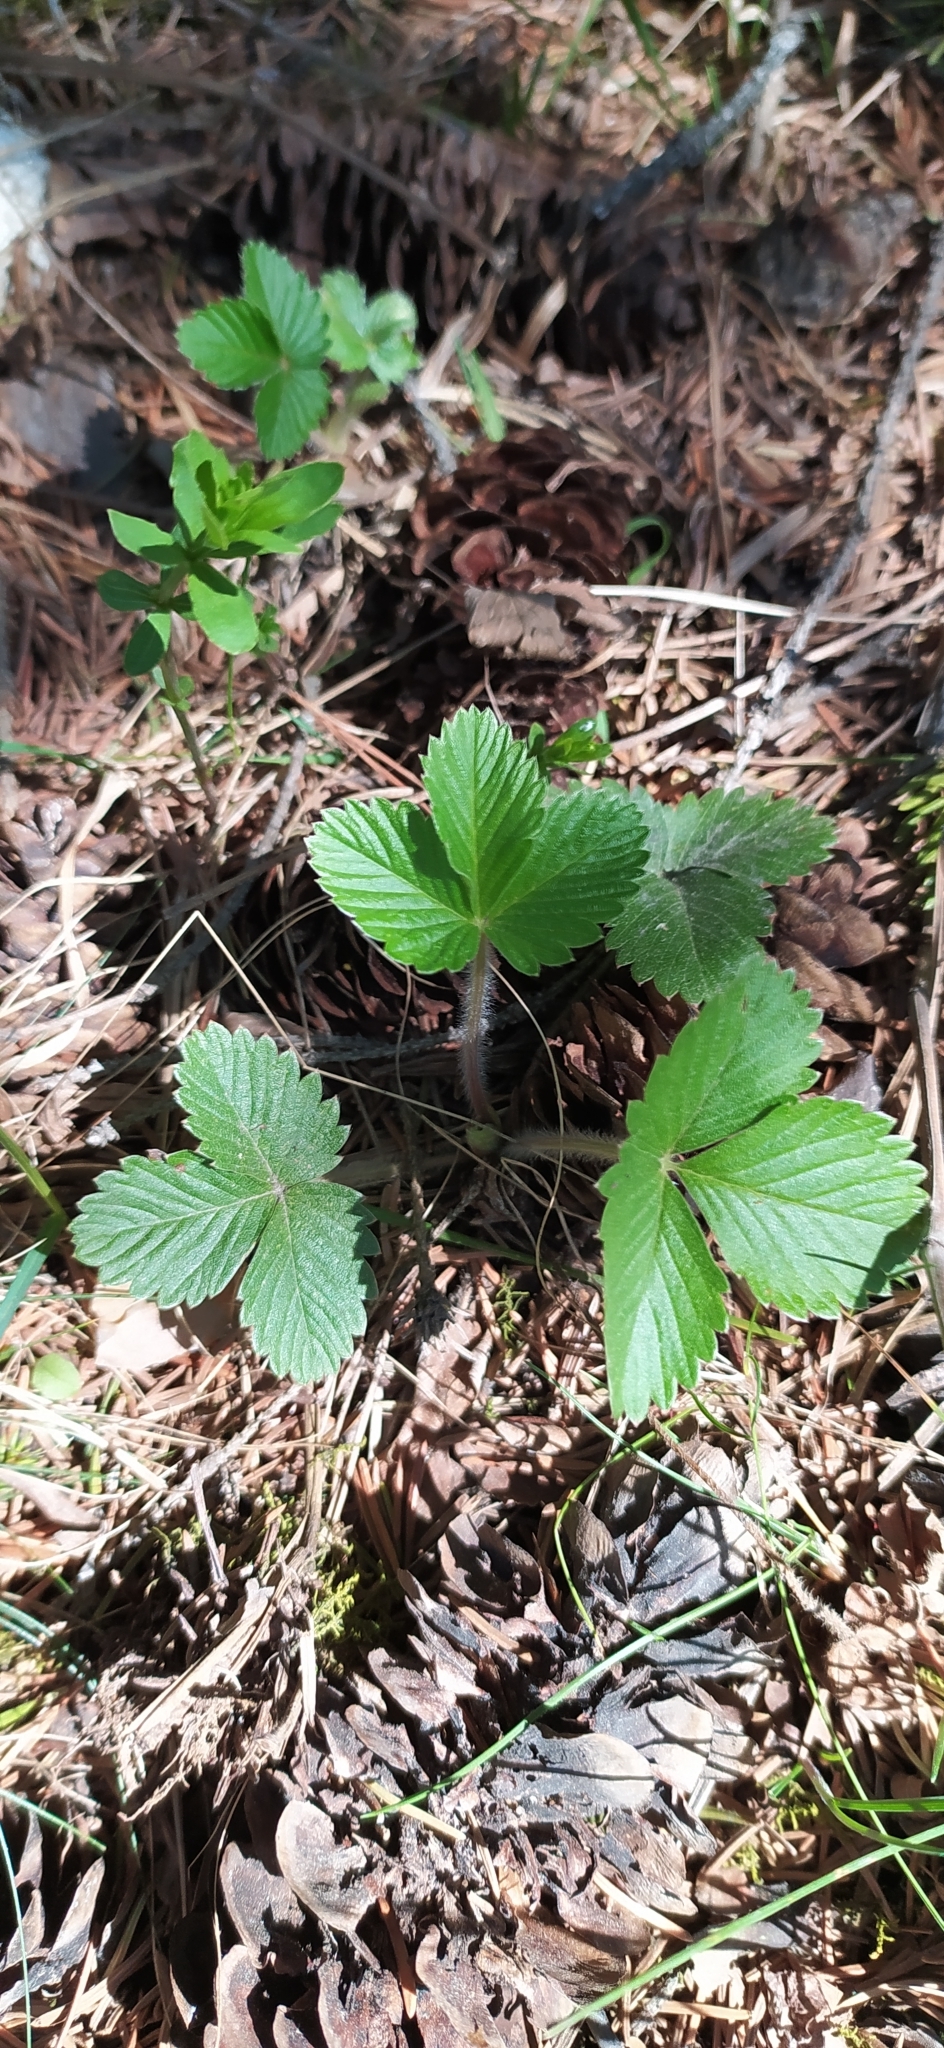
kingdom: Plantae
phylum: Tracheophyta
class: Magnoliopsida
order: Rosales
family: Rosaceae
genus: Fragaria
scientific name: Fragaria vesca
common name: Wild strawberry
